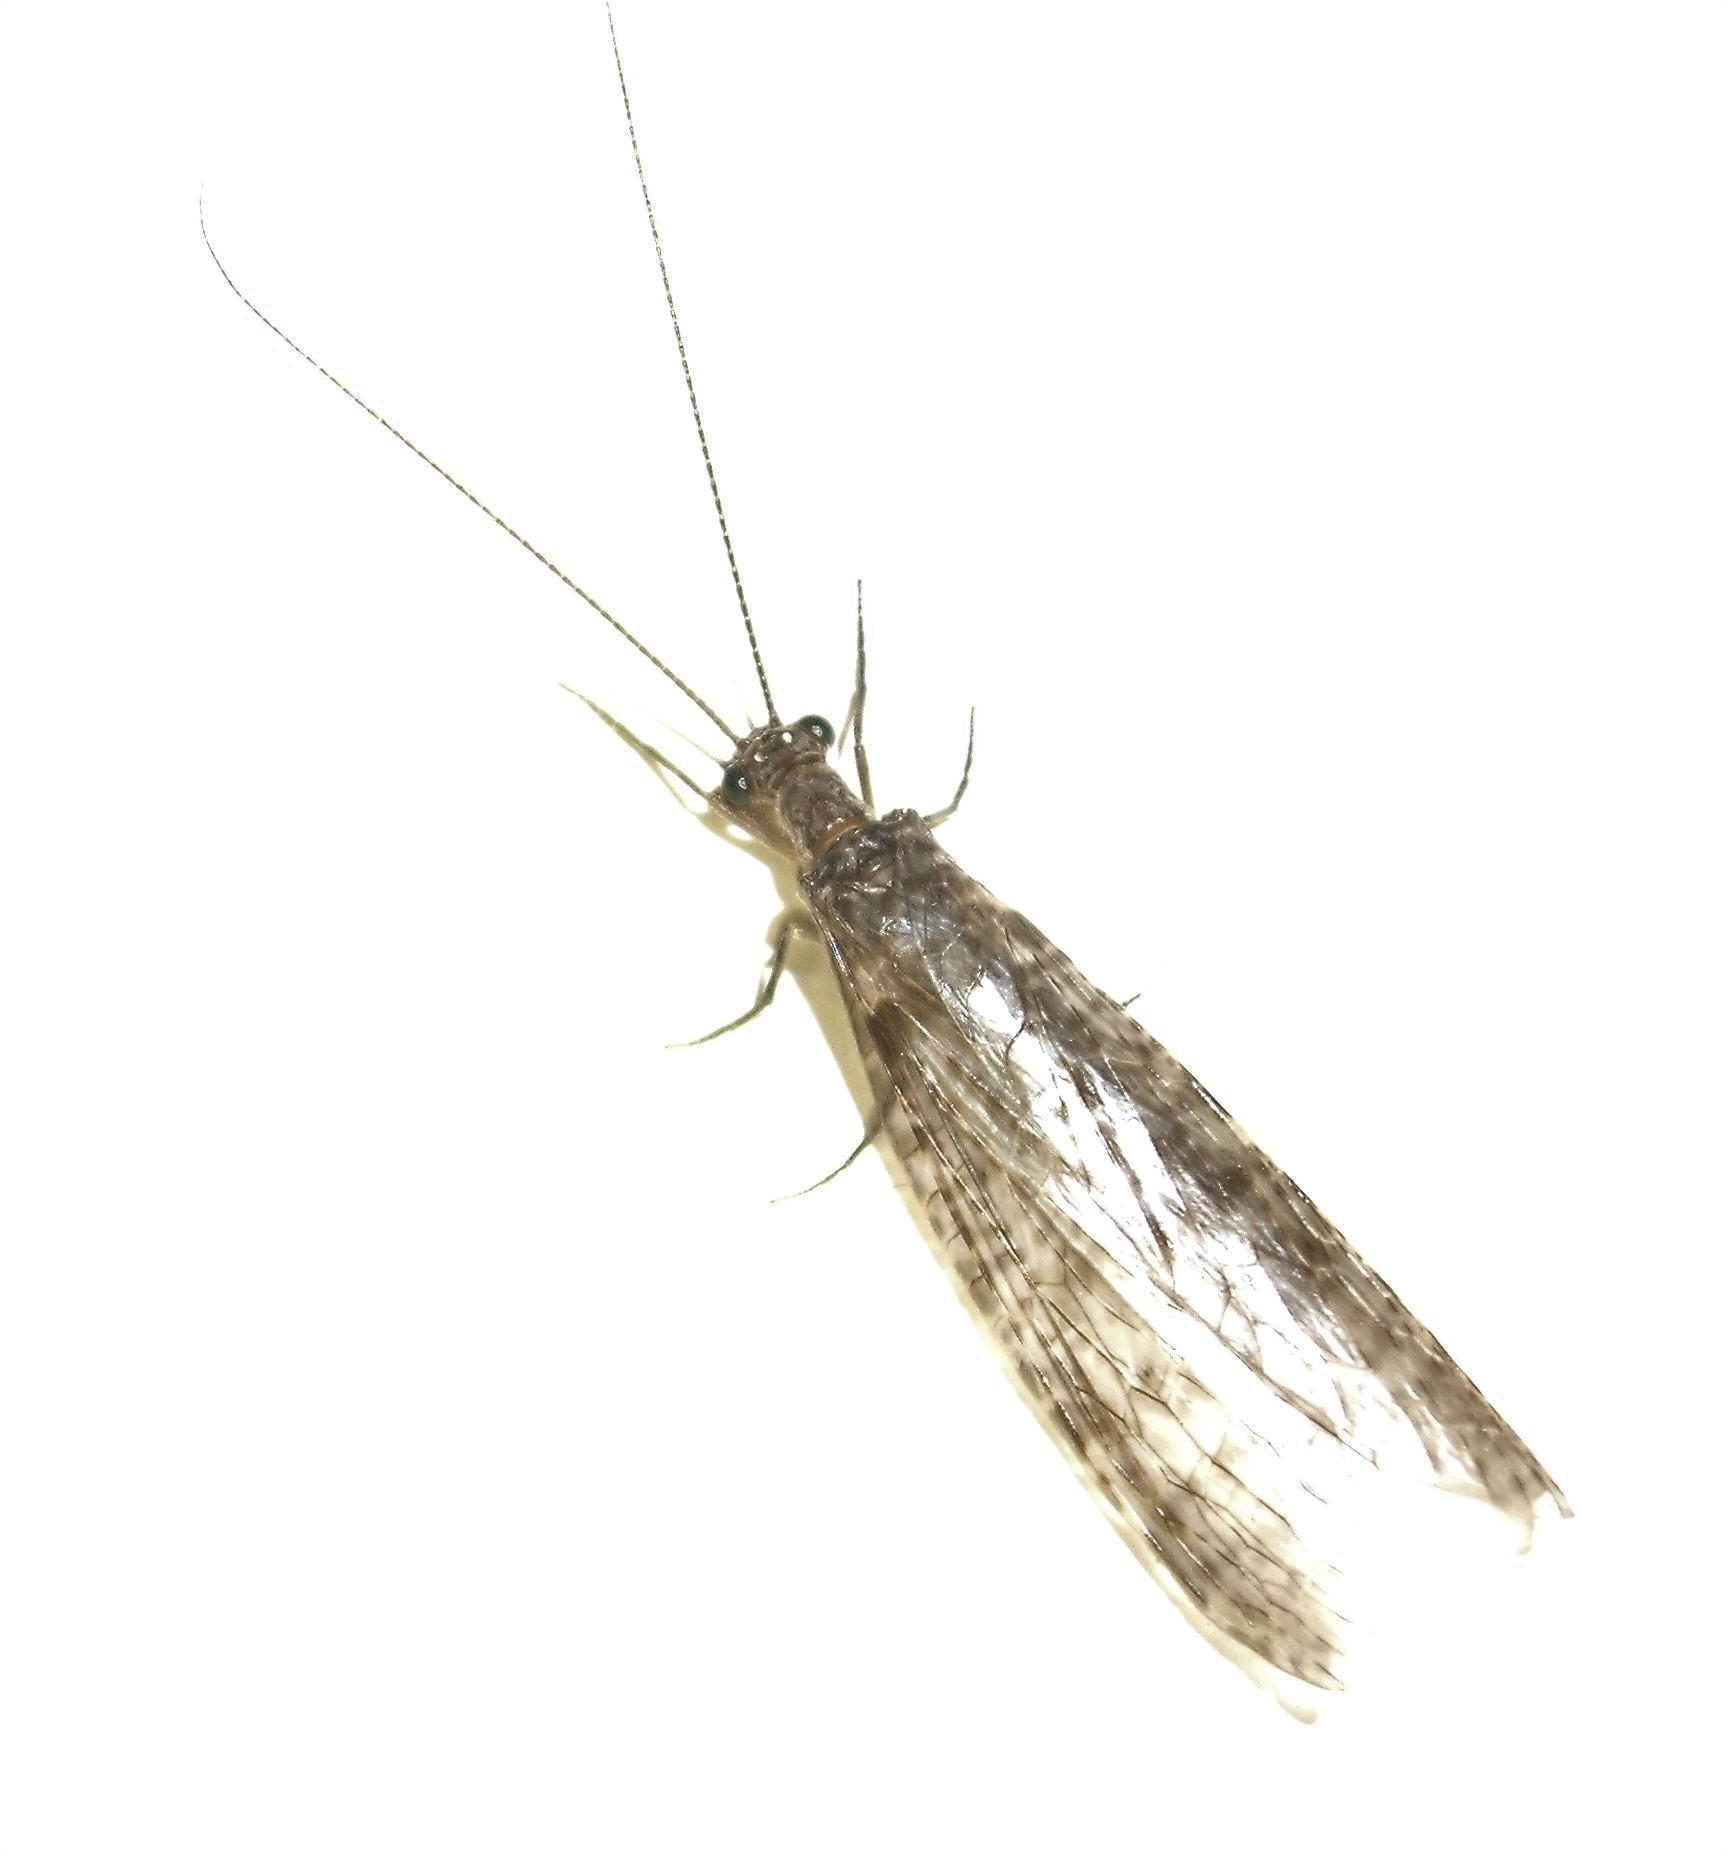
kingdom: Animalia
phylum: Arthropoda
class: Insecta
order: Megaloptera
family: Corydalidae
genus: Archichauliodes
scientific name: Archichauliodes diversus
